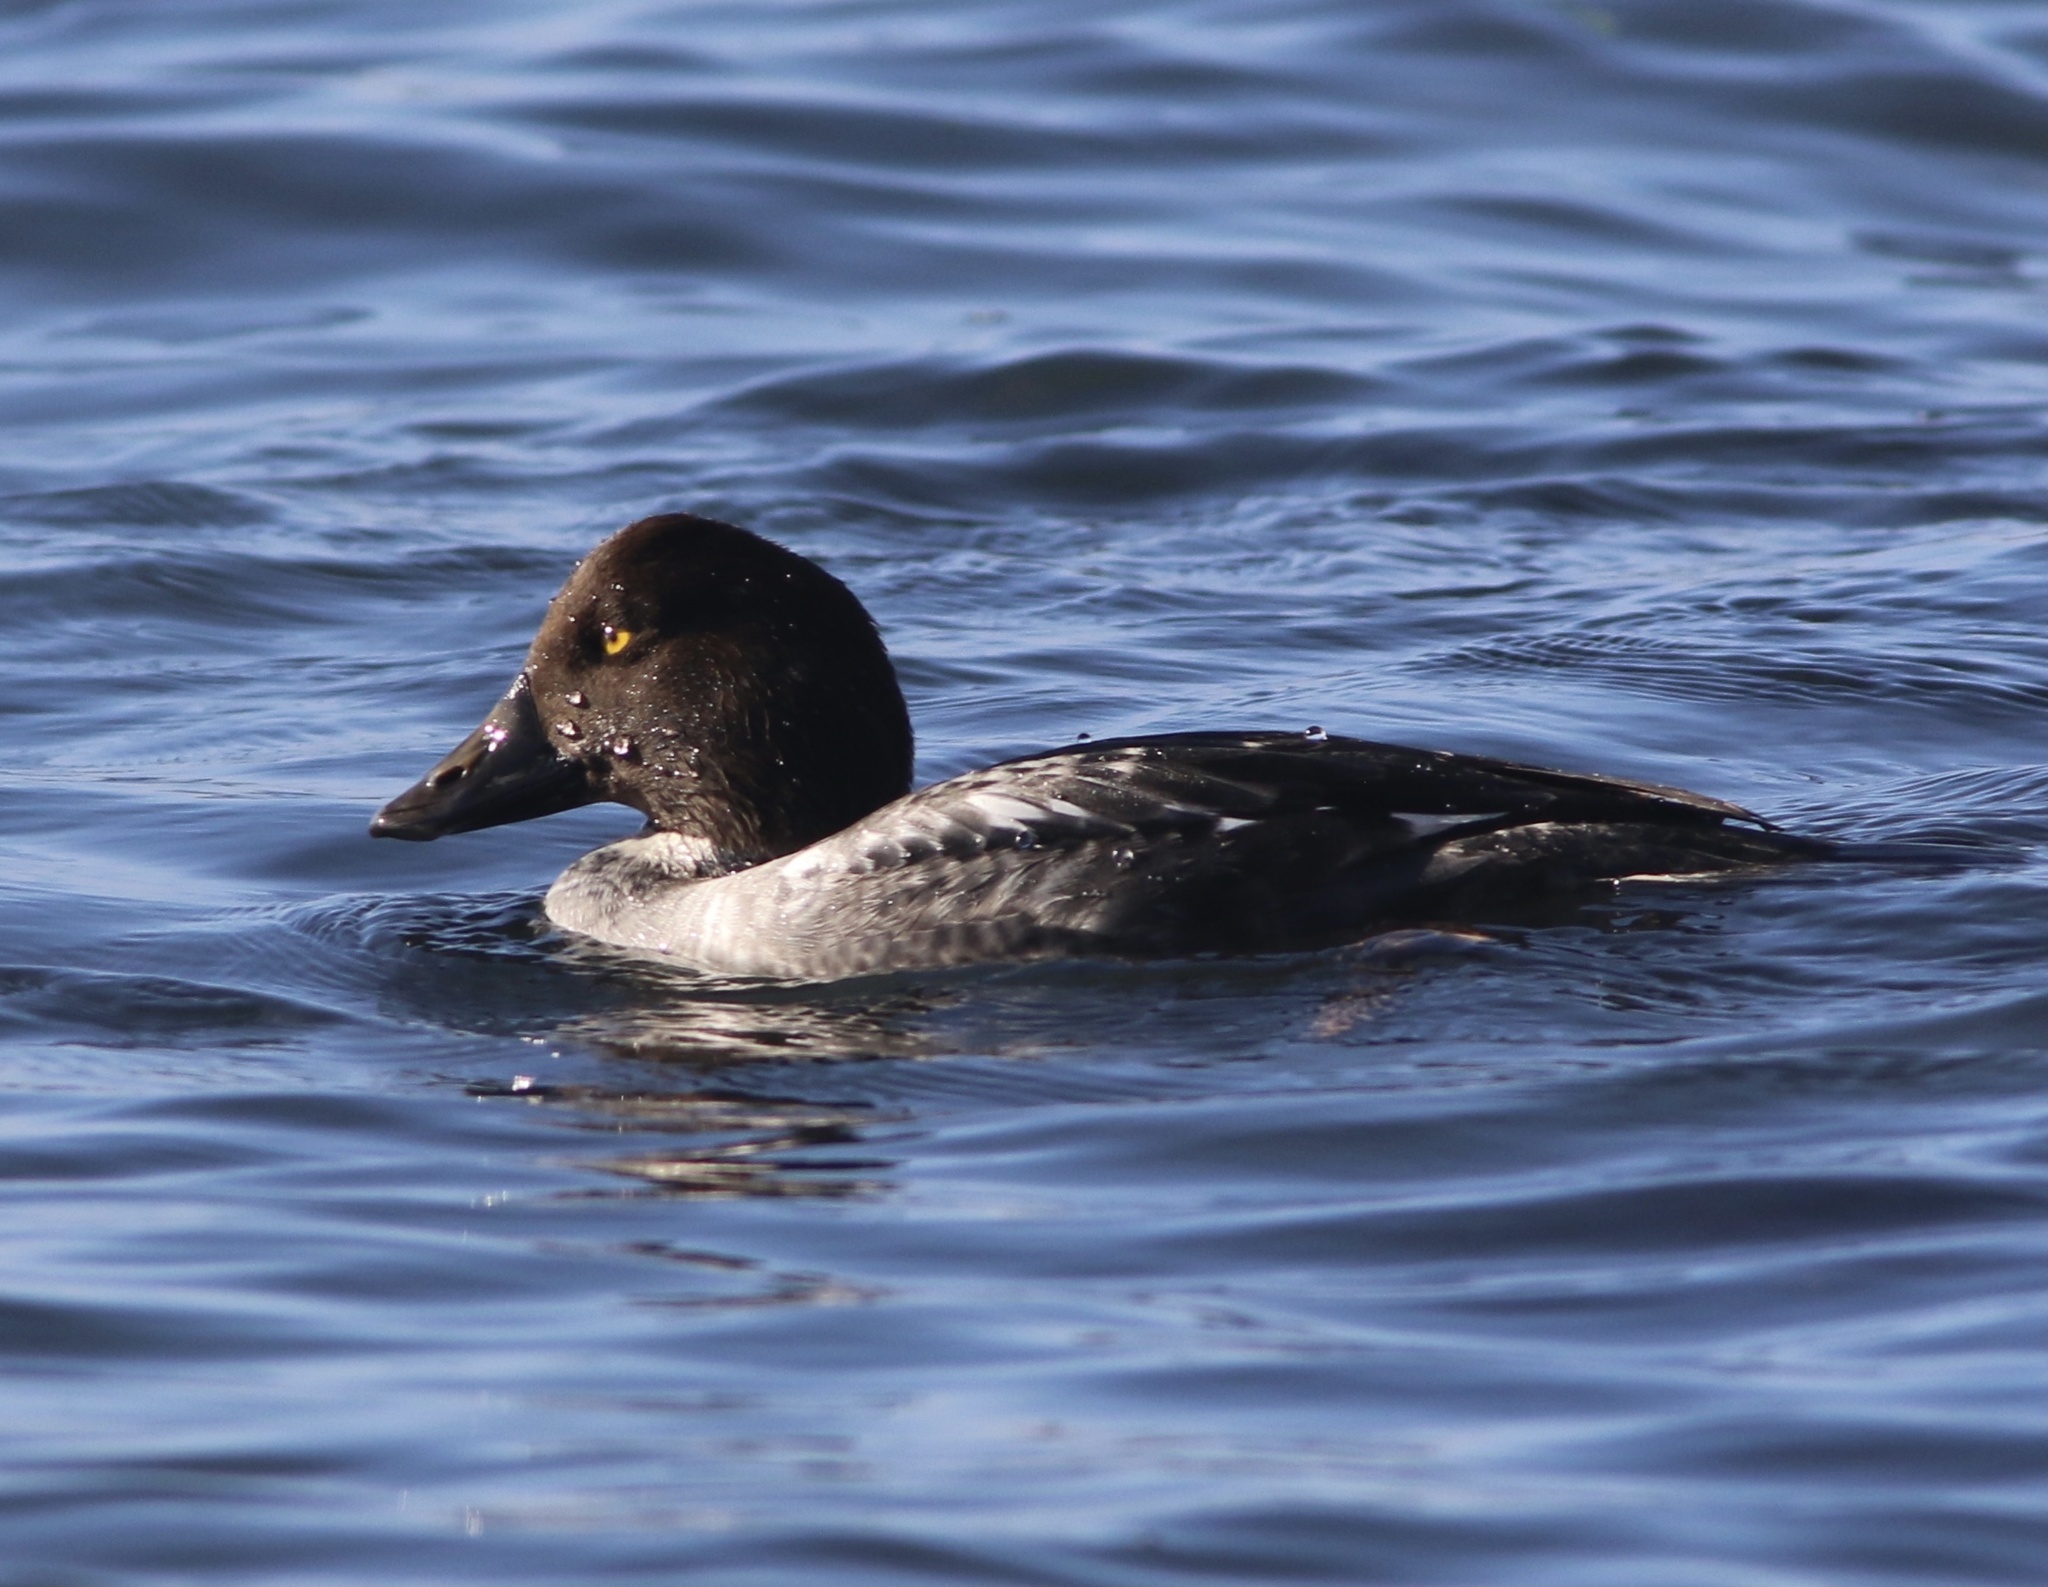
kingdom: Animalia
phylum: Chordata
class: Aves
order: Anseriformes
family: Anatidae
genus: Bucephala
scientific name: Bucephala clangula
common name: Common goldeneye
